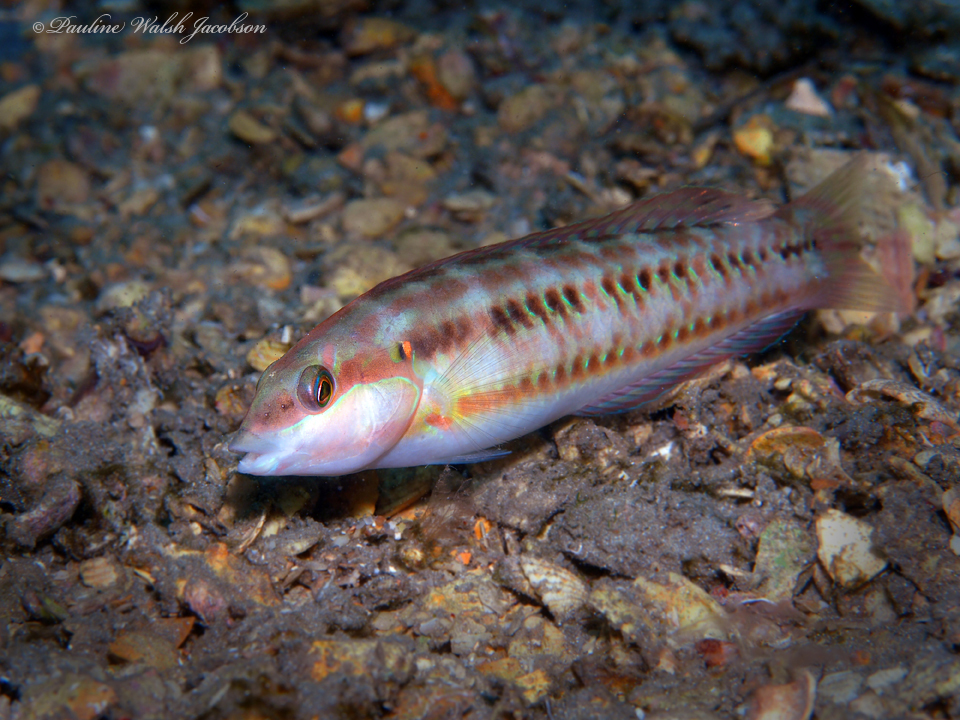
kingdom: Animalia
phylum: Chordata
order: Perciformes
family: Labridae
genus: Halichoeres
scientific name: Halichoeres bivittatus
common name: Slippery dick
